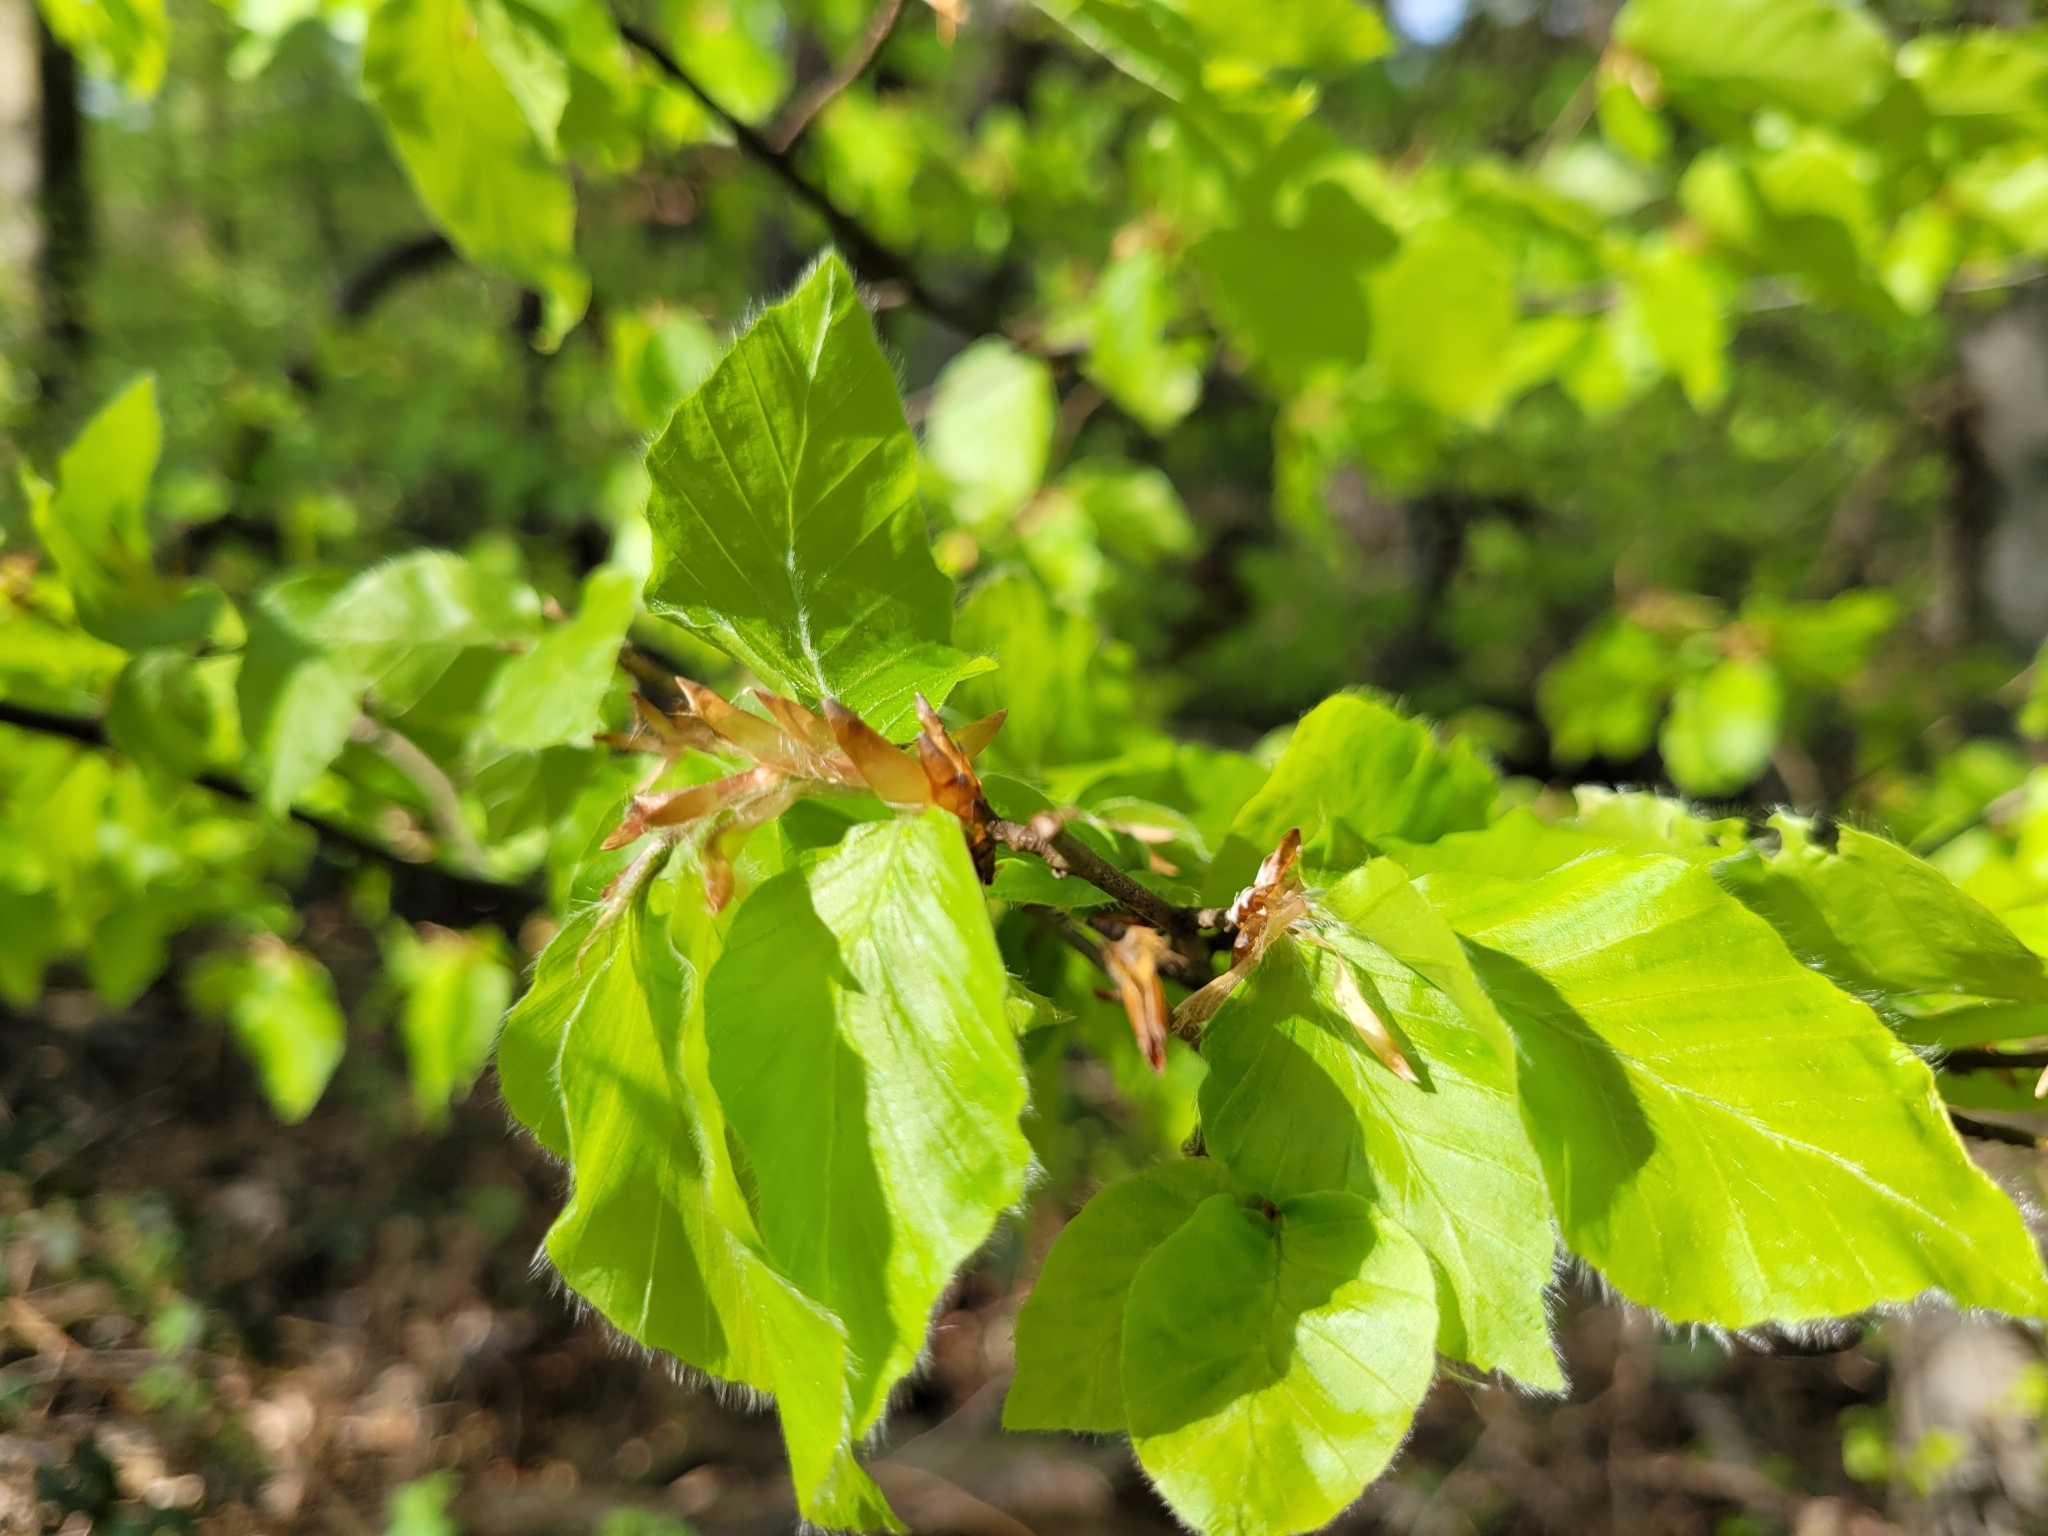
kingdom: Plantae
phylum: Tracheophyta
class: Magnoliopsida
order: Fagales
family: Fagaceae
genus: Fagus
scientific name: Fagus sylvatica
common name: Beech
